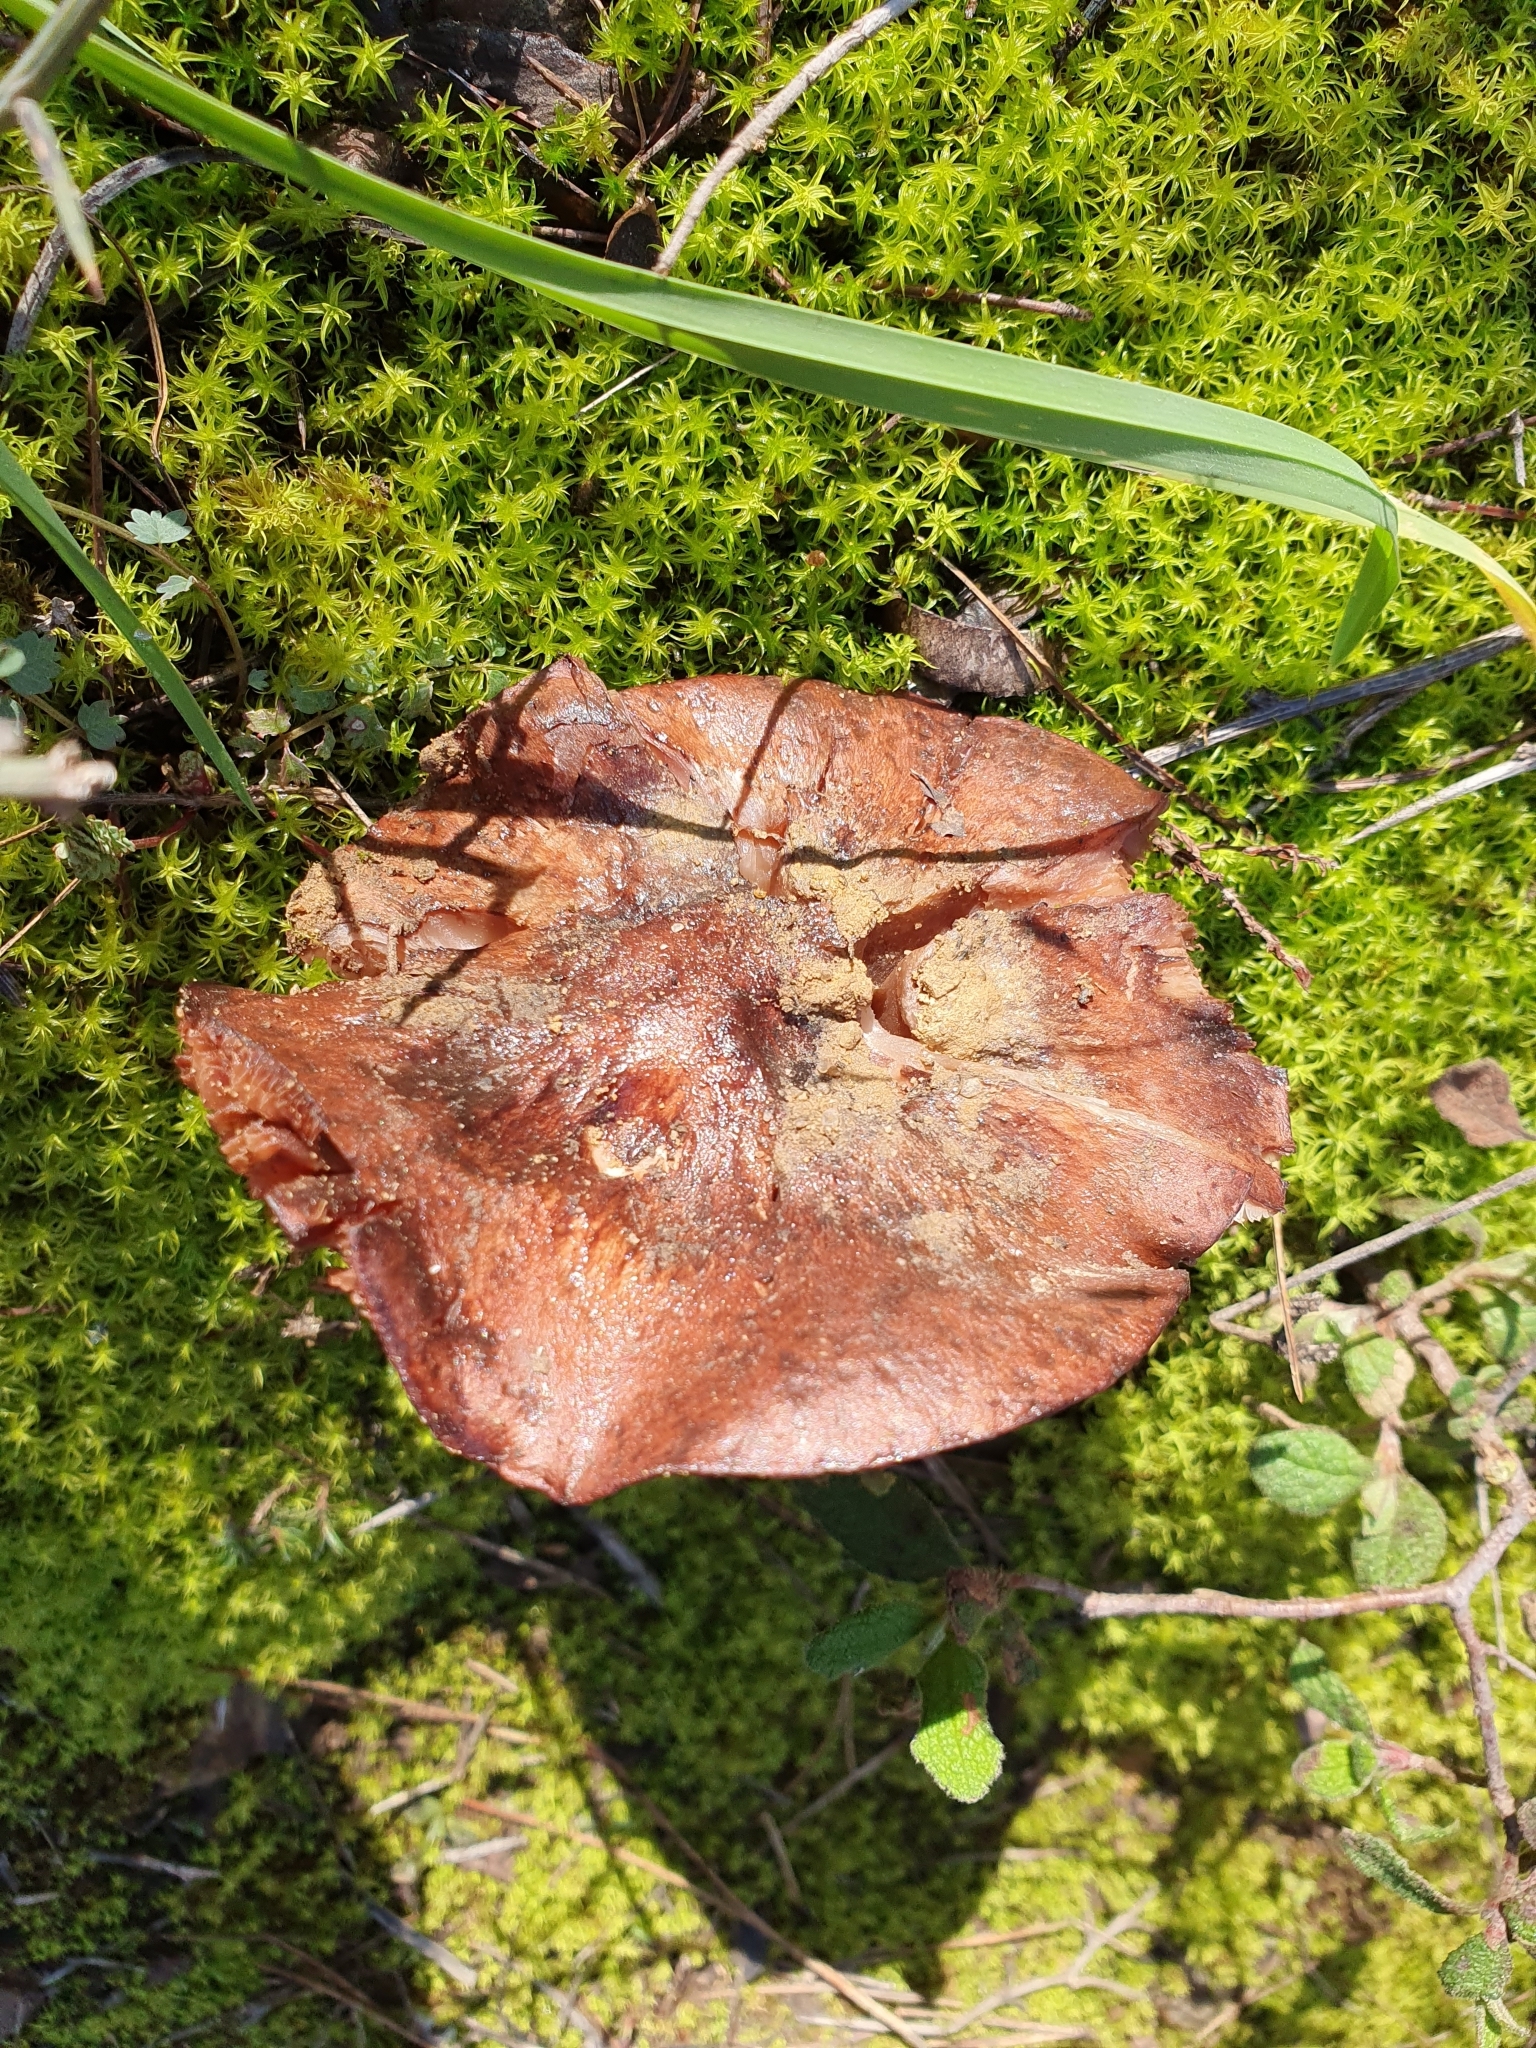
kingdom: Fungi
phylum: Basidiomycota
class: Agaricomycetes
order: Agaricales
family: Tricholomataceae
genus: Tricholoma
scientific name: Tricholoma batschii
